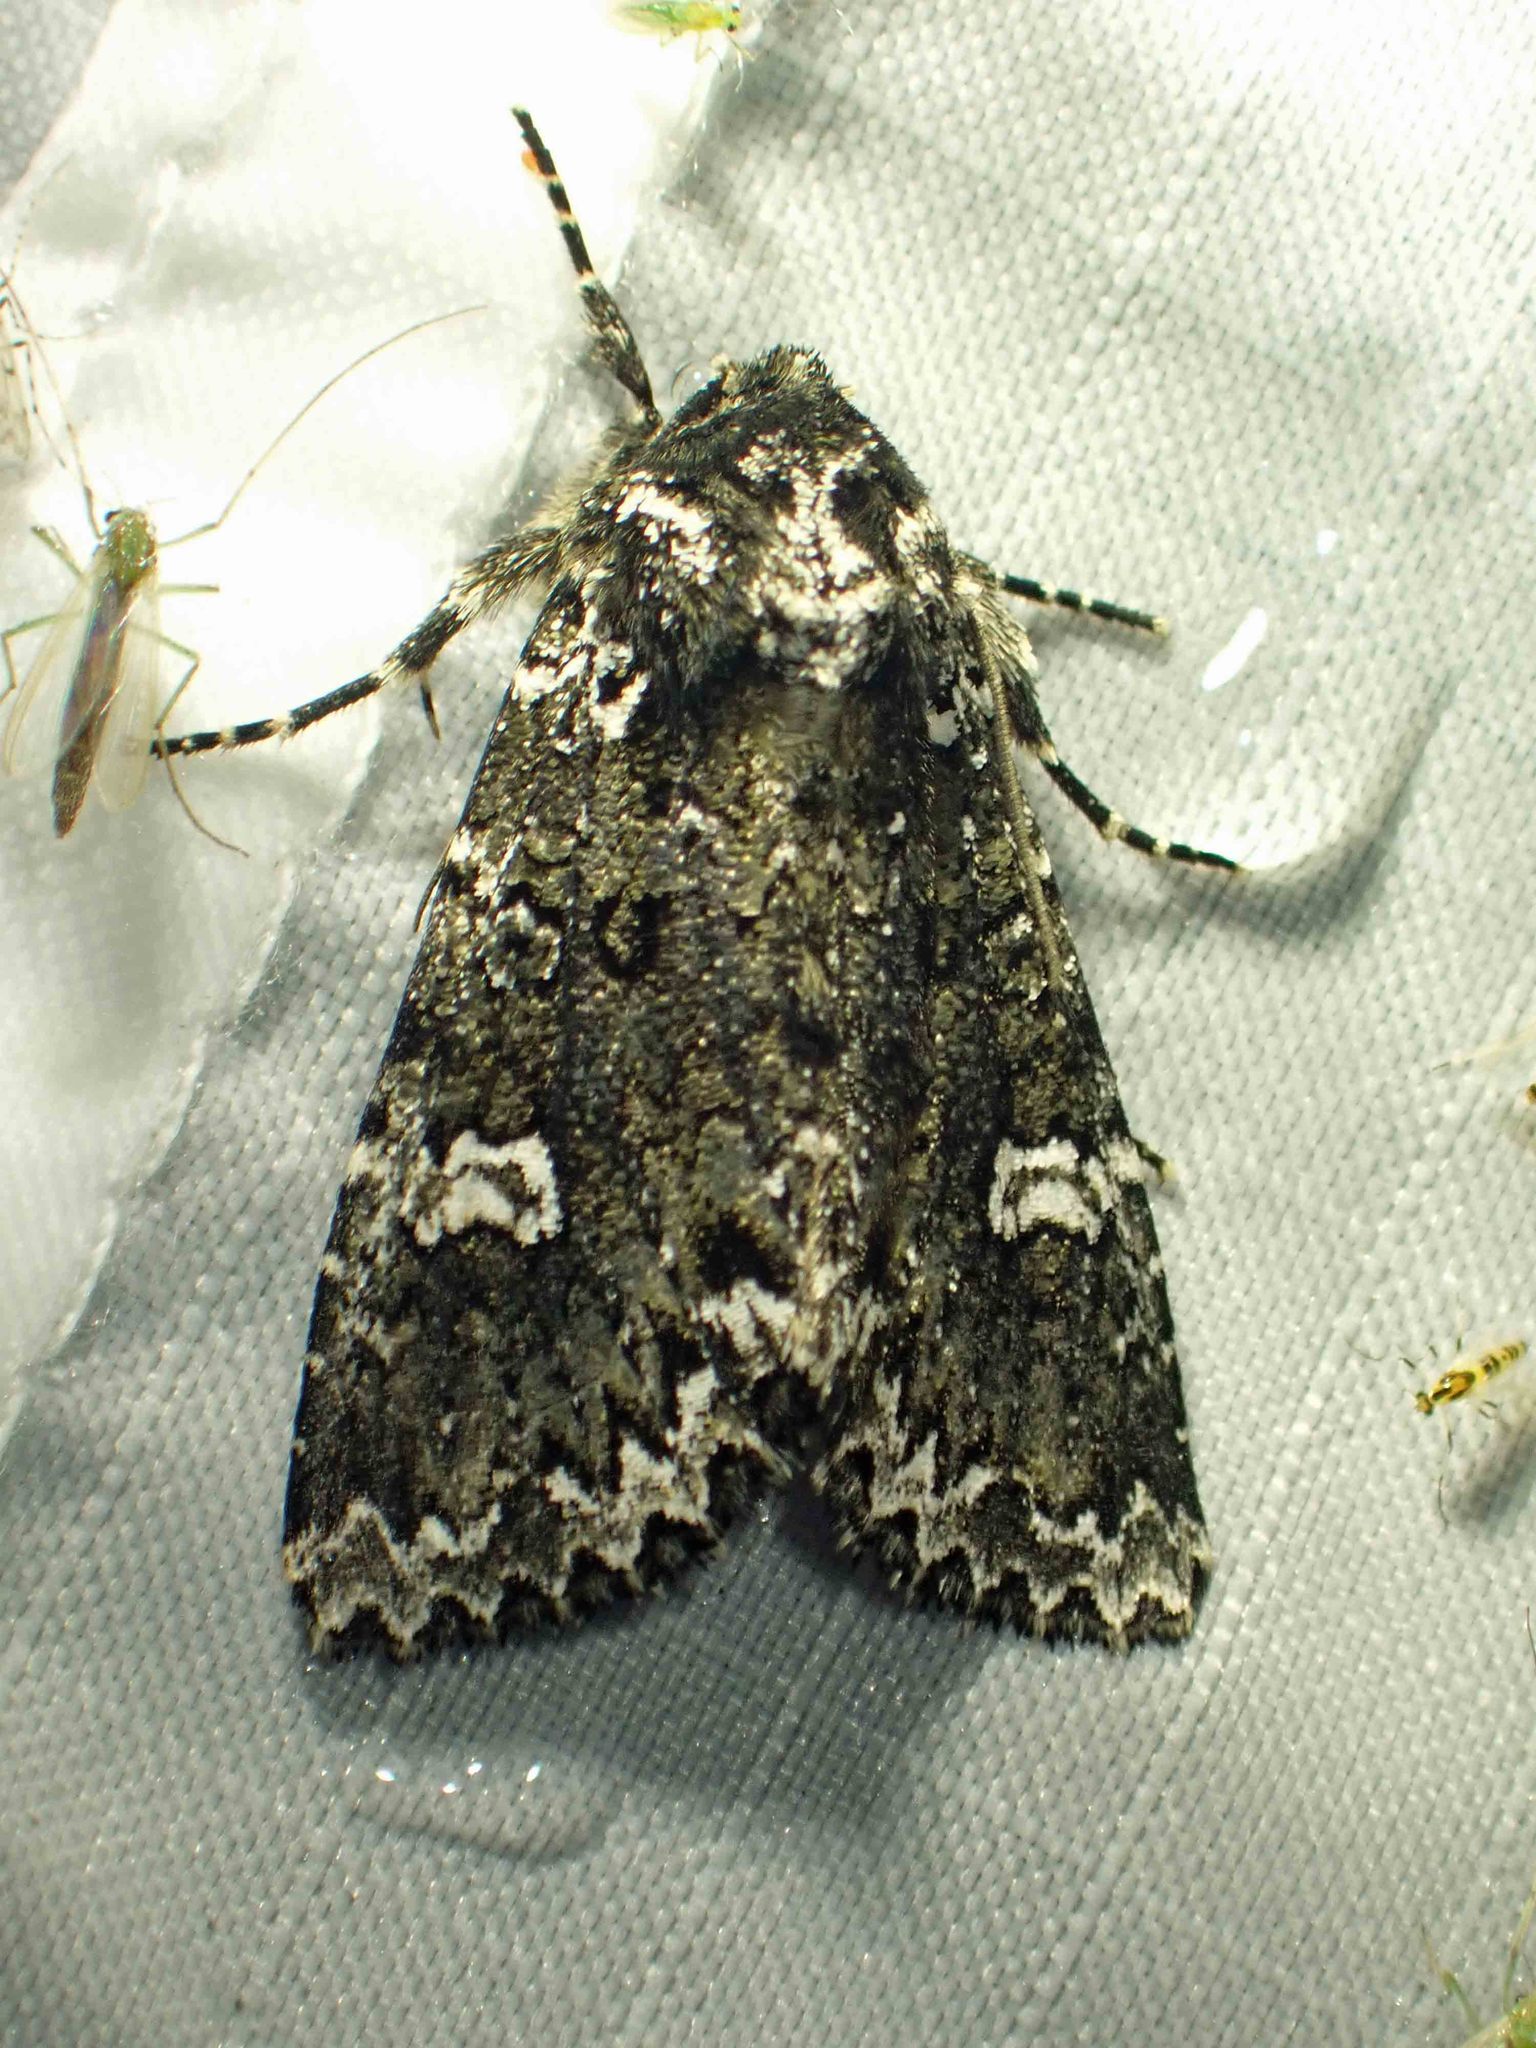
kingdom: Animalia
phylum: Arthropoda
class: Insecta
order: Lepidoptera
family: Noctuidae
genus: Melanchra
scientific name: Melanchra adjuncta
